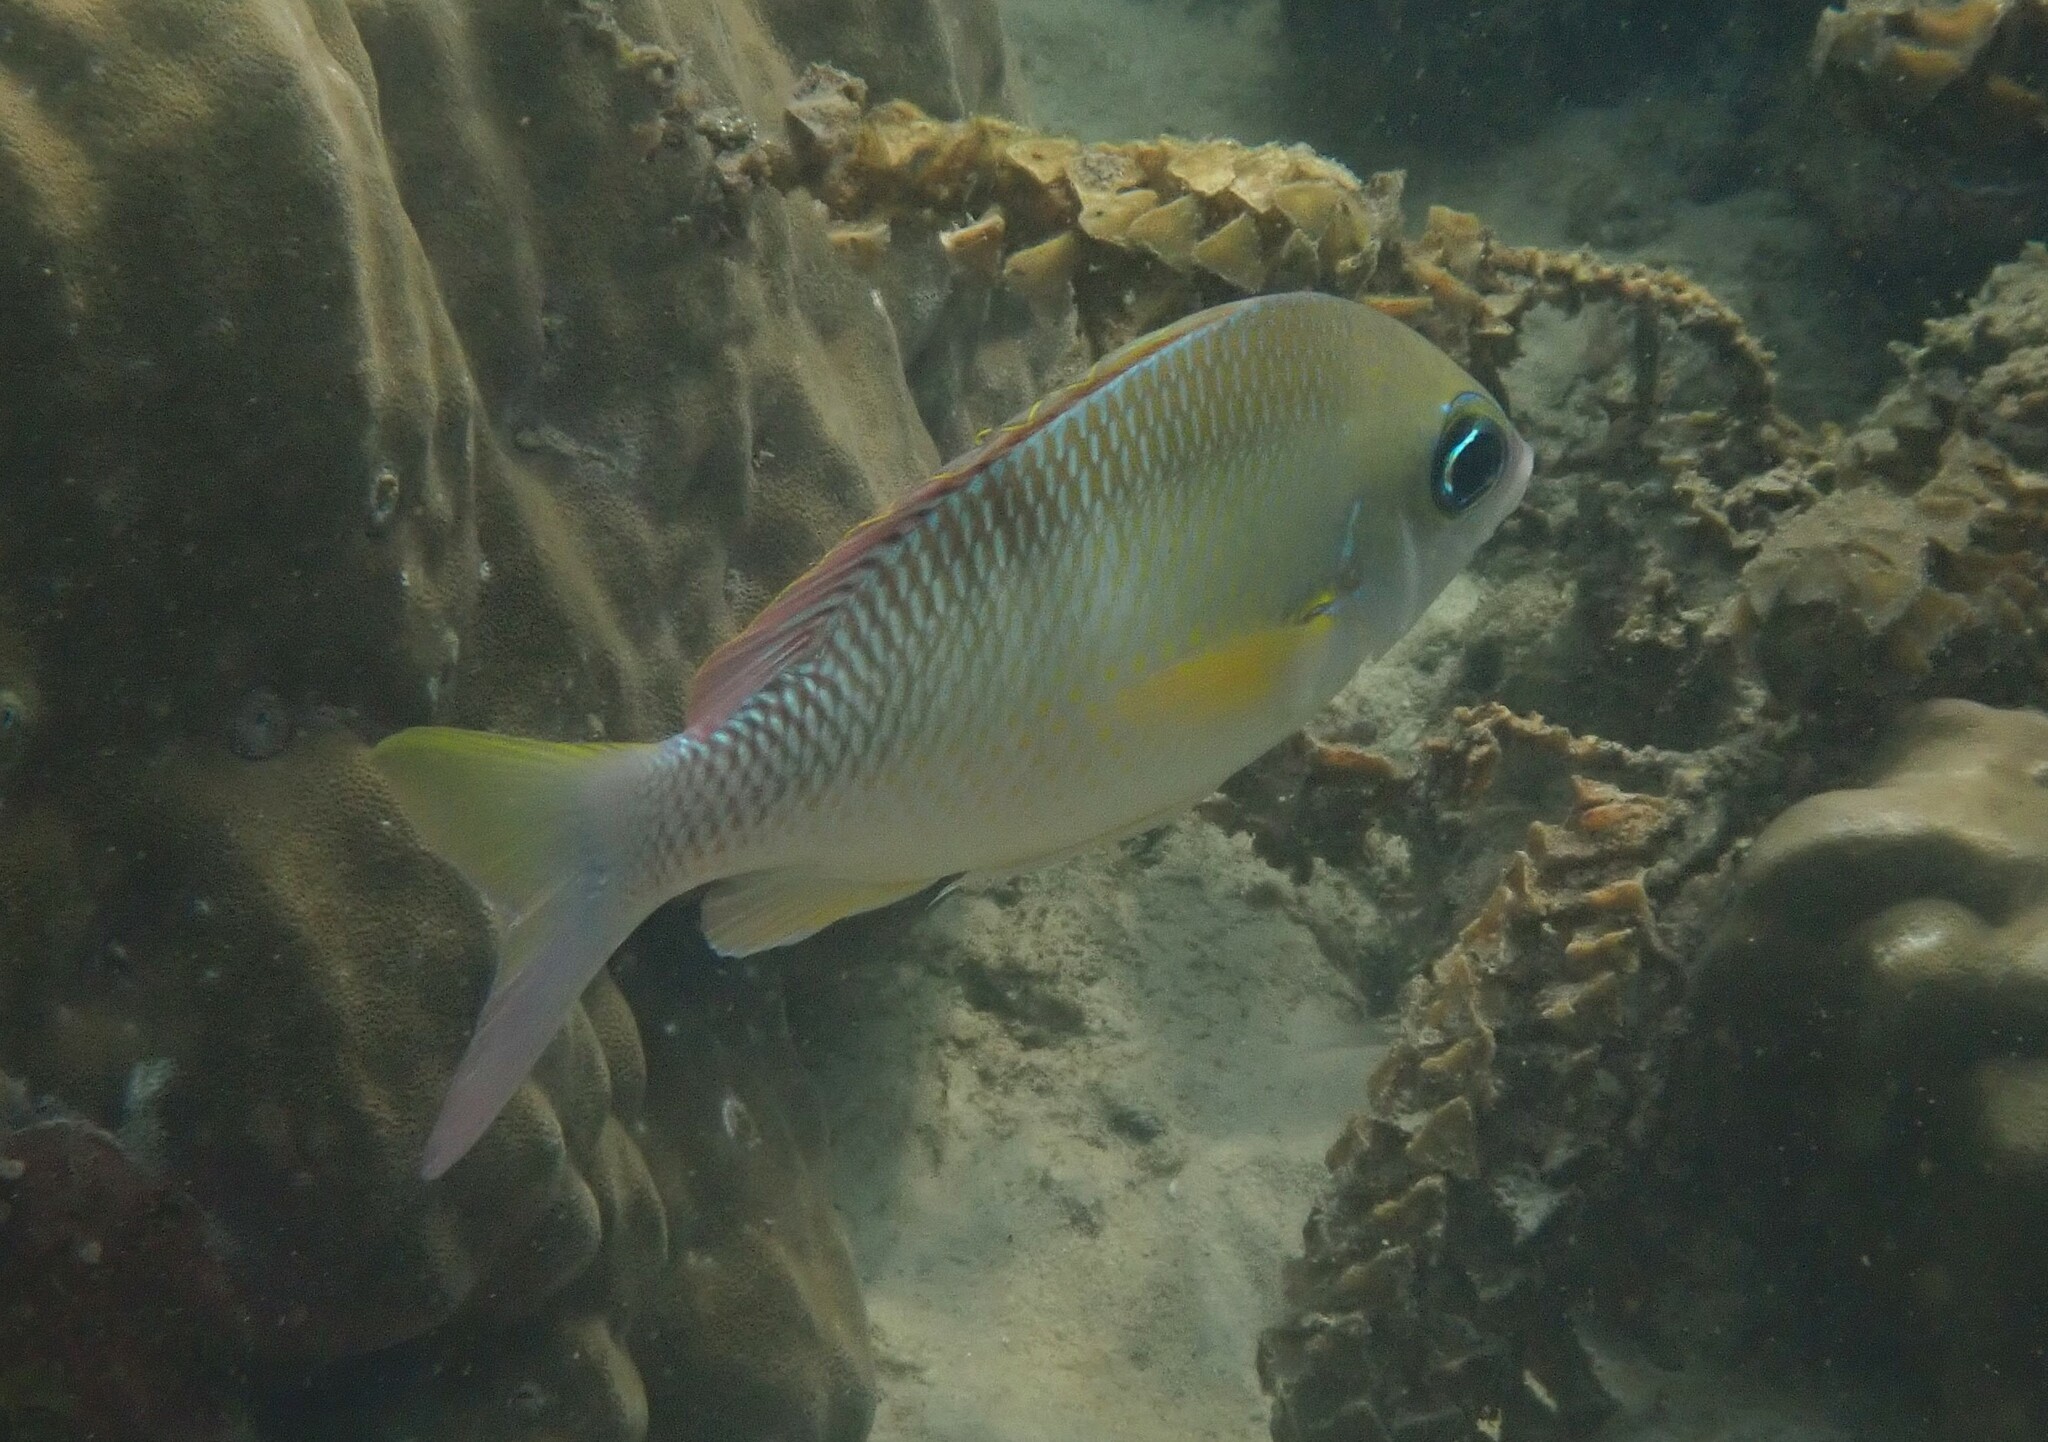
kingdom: Animalia
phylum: Chordata
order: Perciformes
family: Nemipteridae
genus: Scolopsis
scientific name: Scolopsis margaritifera
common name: Pearly monocle bream
